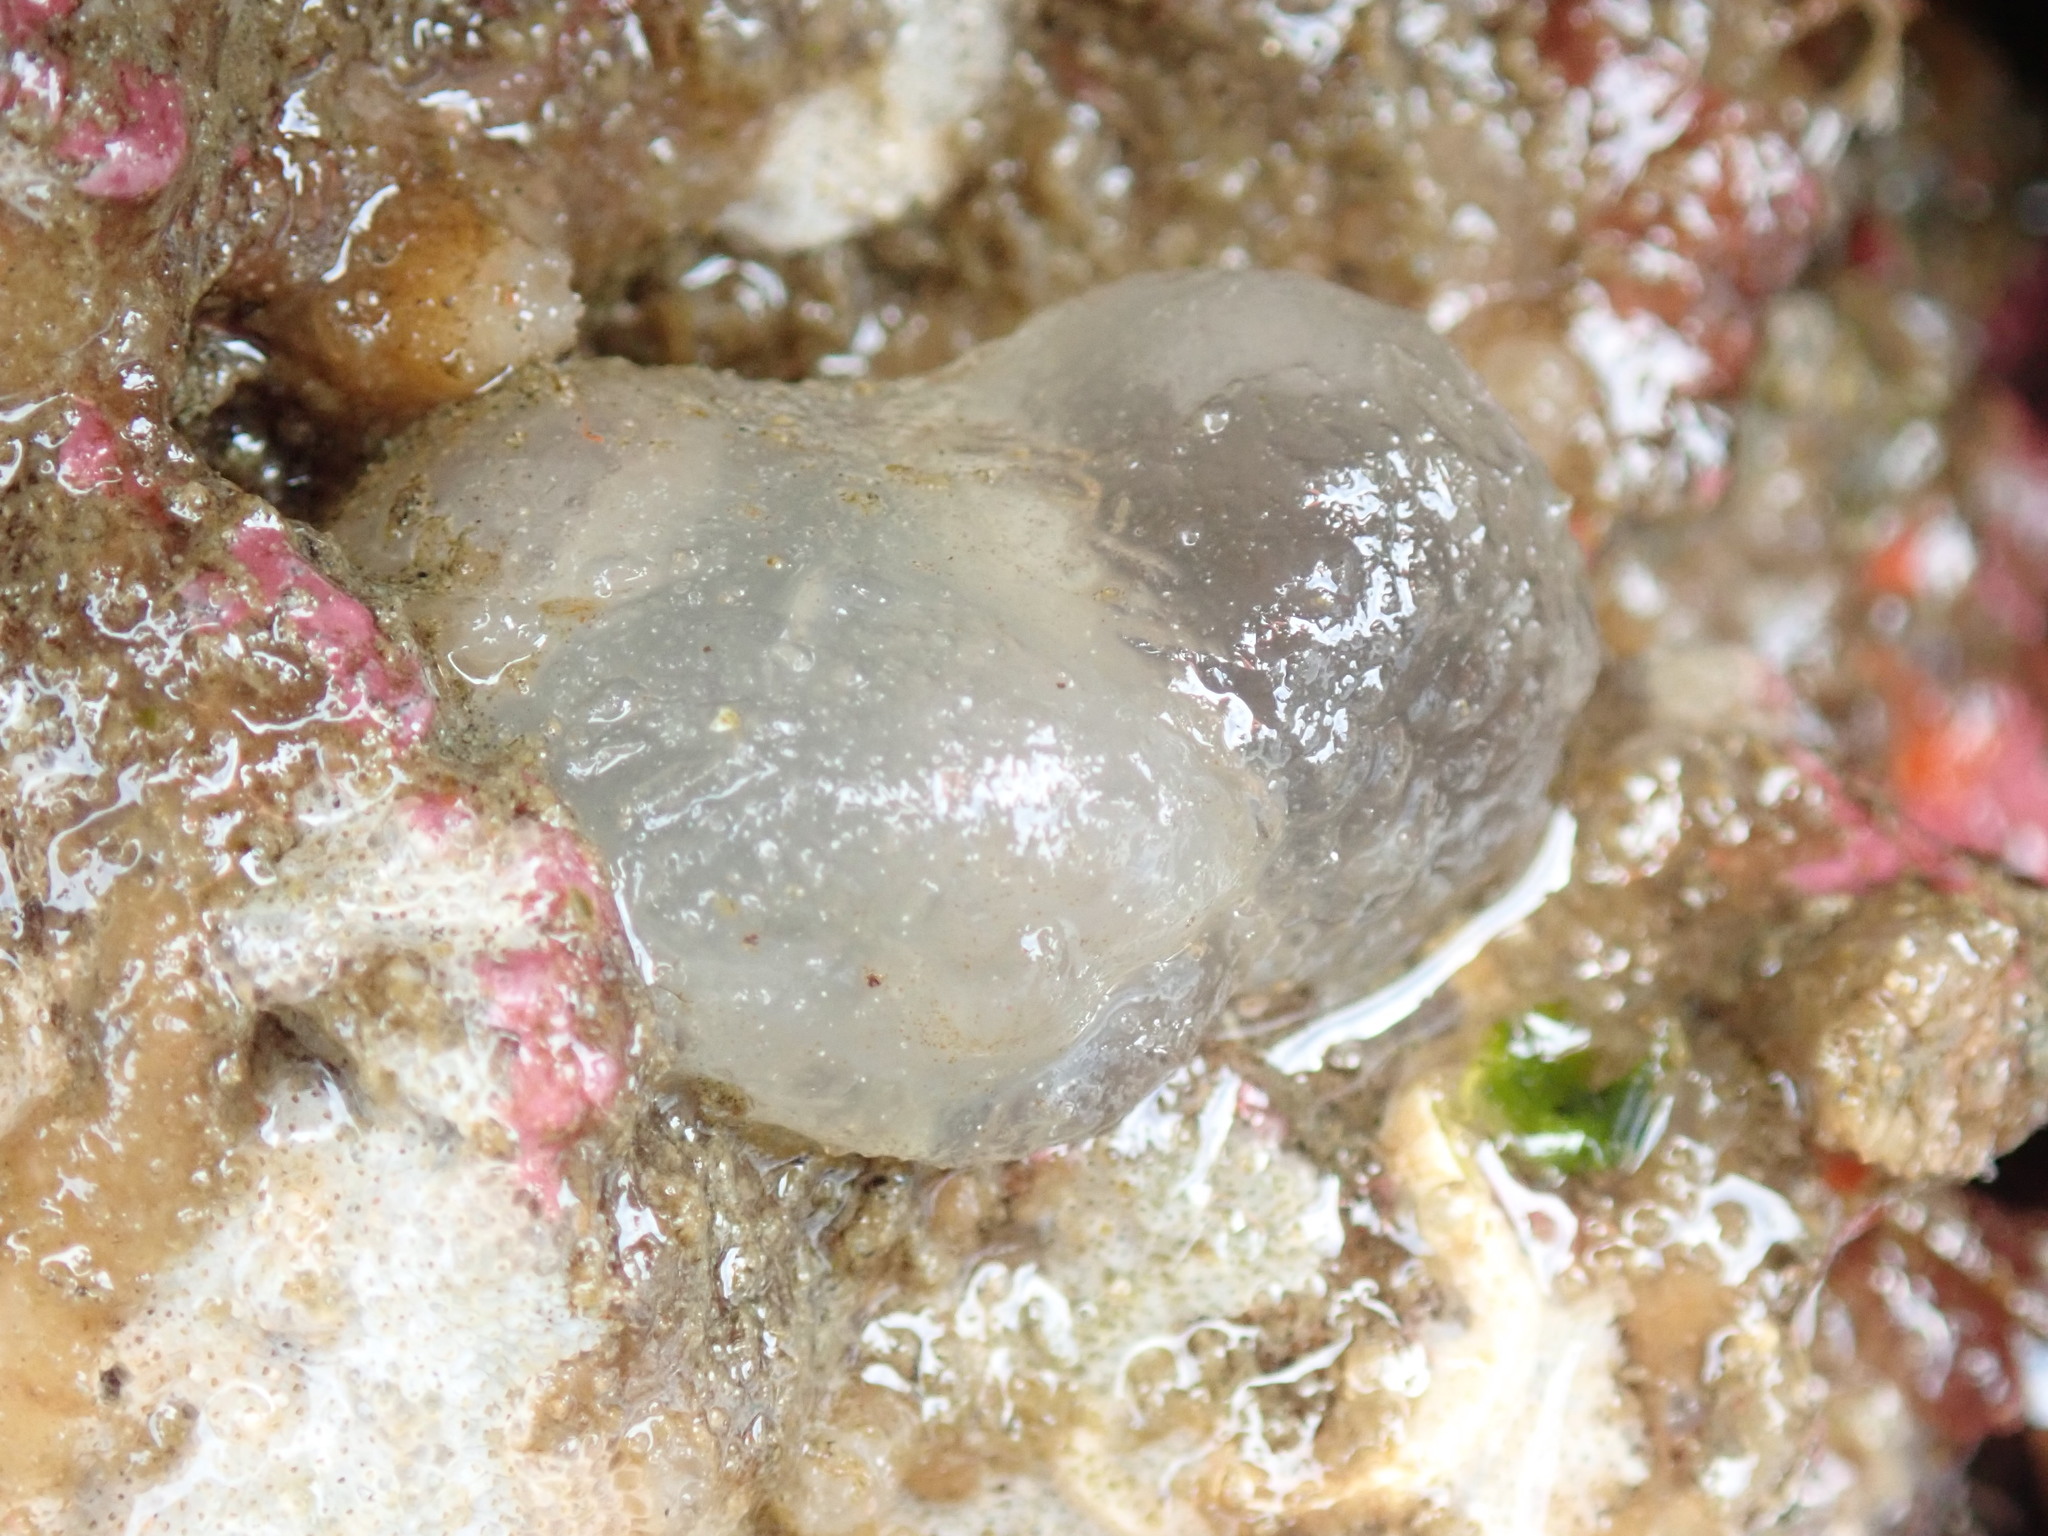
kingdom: Animalia
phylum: Chordata
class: Ascidiacea
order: Phlebobranchia
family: Corellidae
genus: Corella
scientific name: Corella inflata
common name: Ascidian
